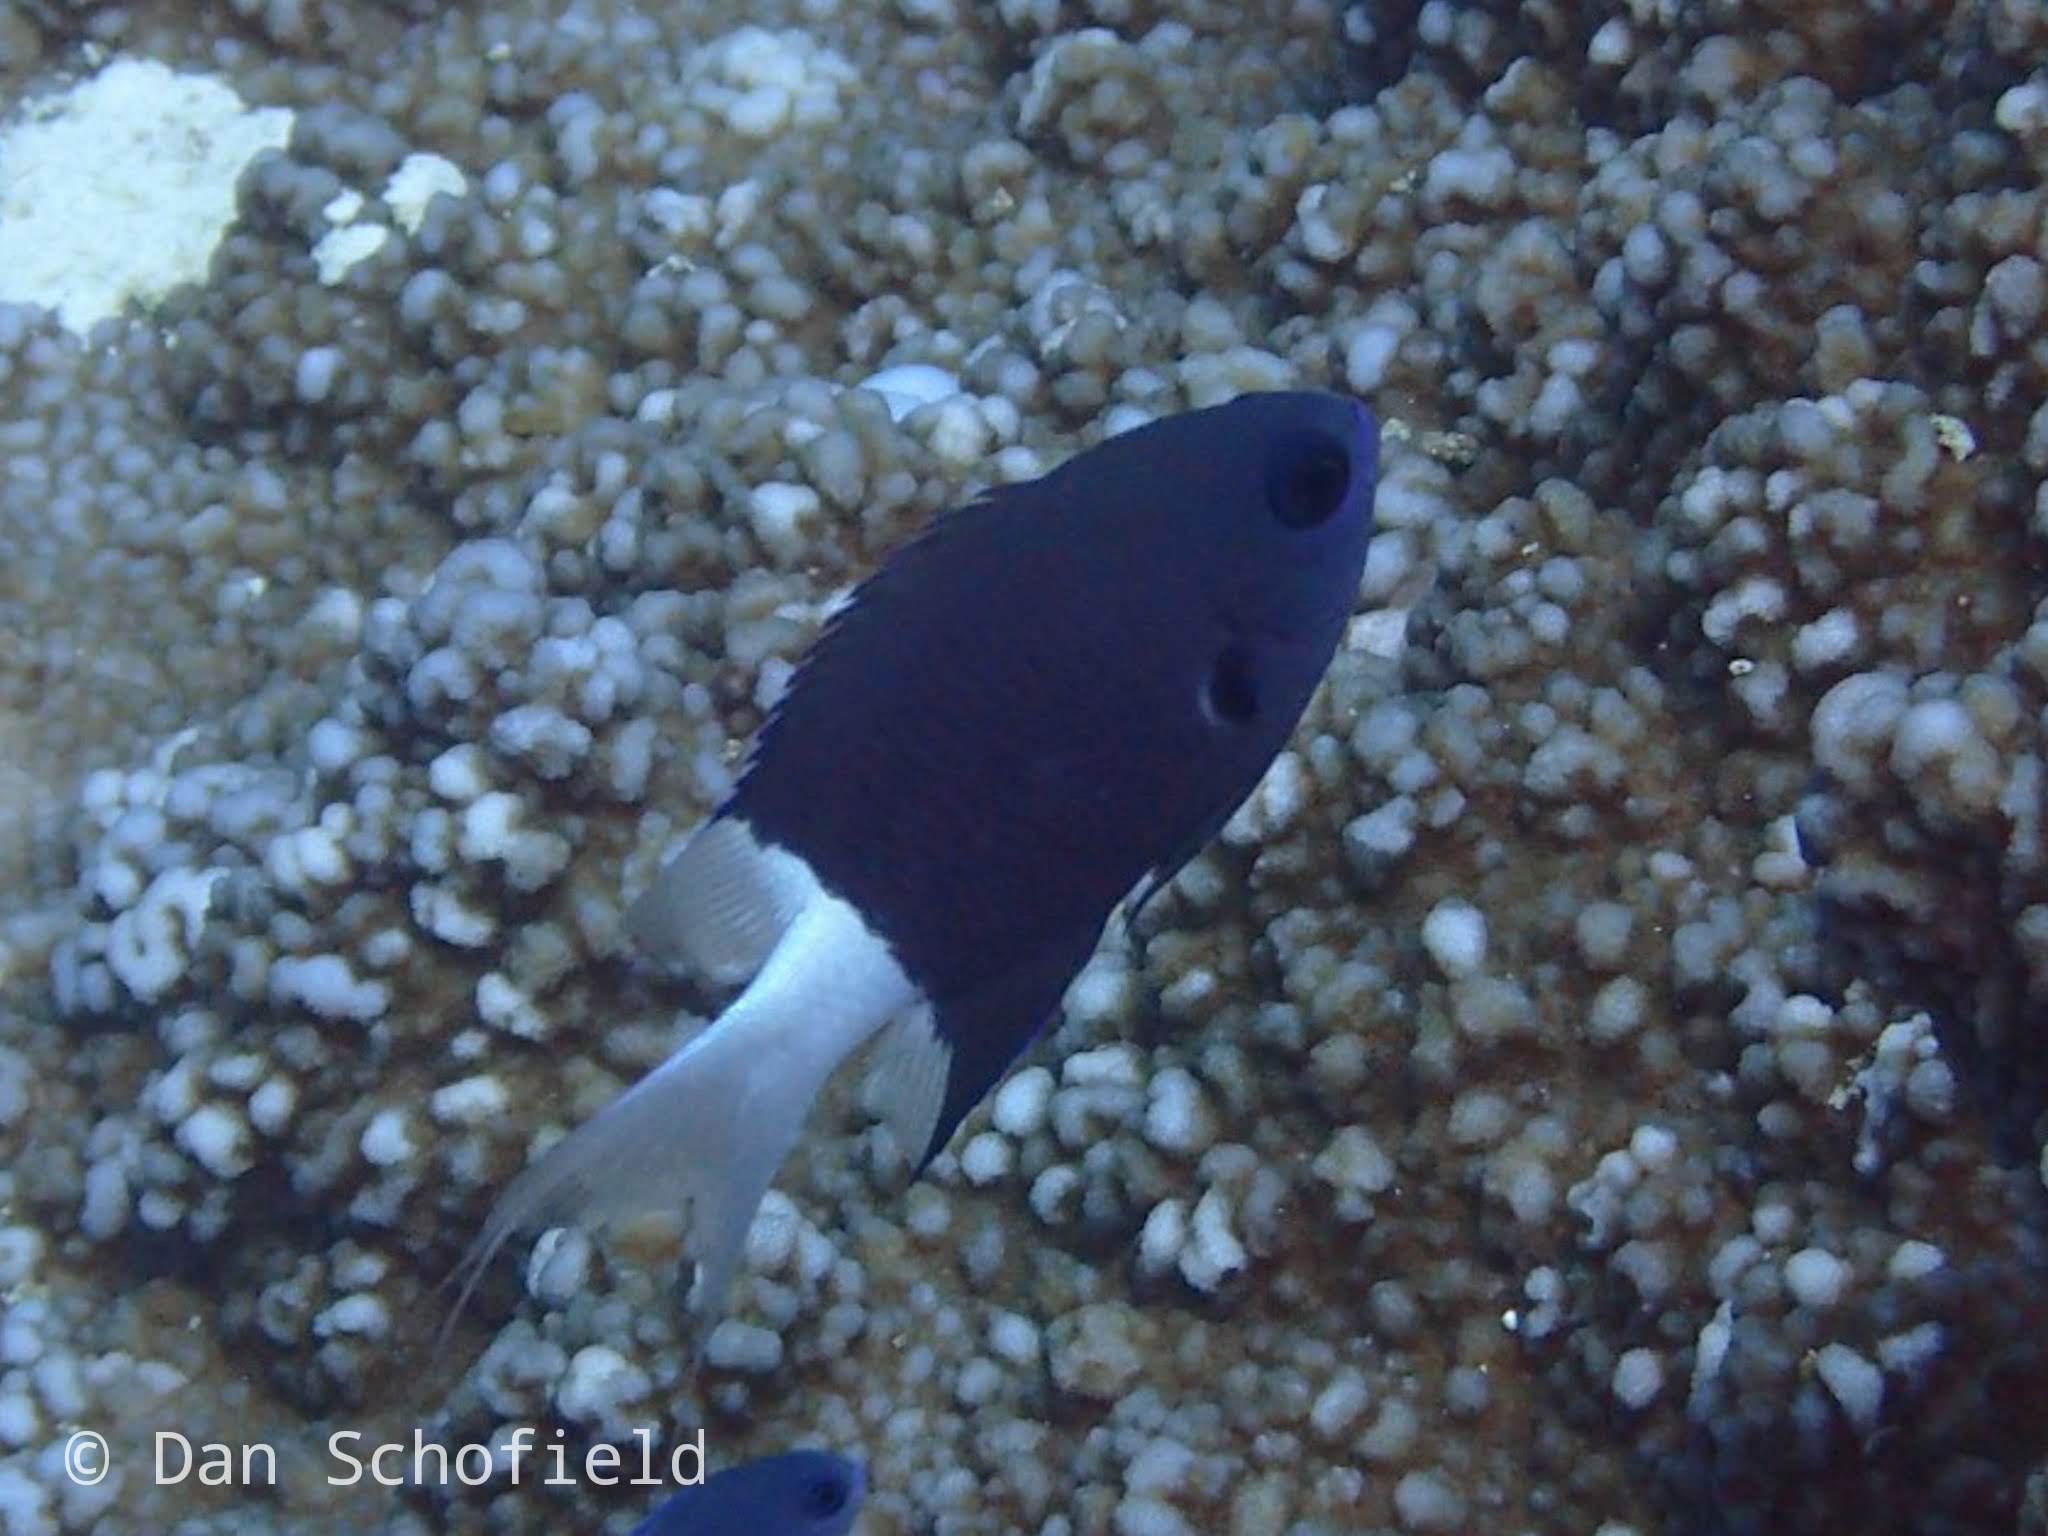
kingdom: Animalia
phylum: Chordata
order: Perciformes
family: Pomacentridae
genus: Pycnochromis
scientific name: Pycnochromis margaritifer
